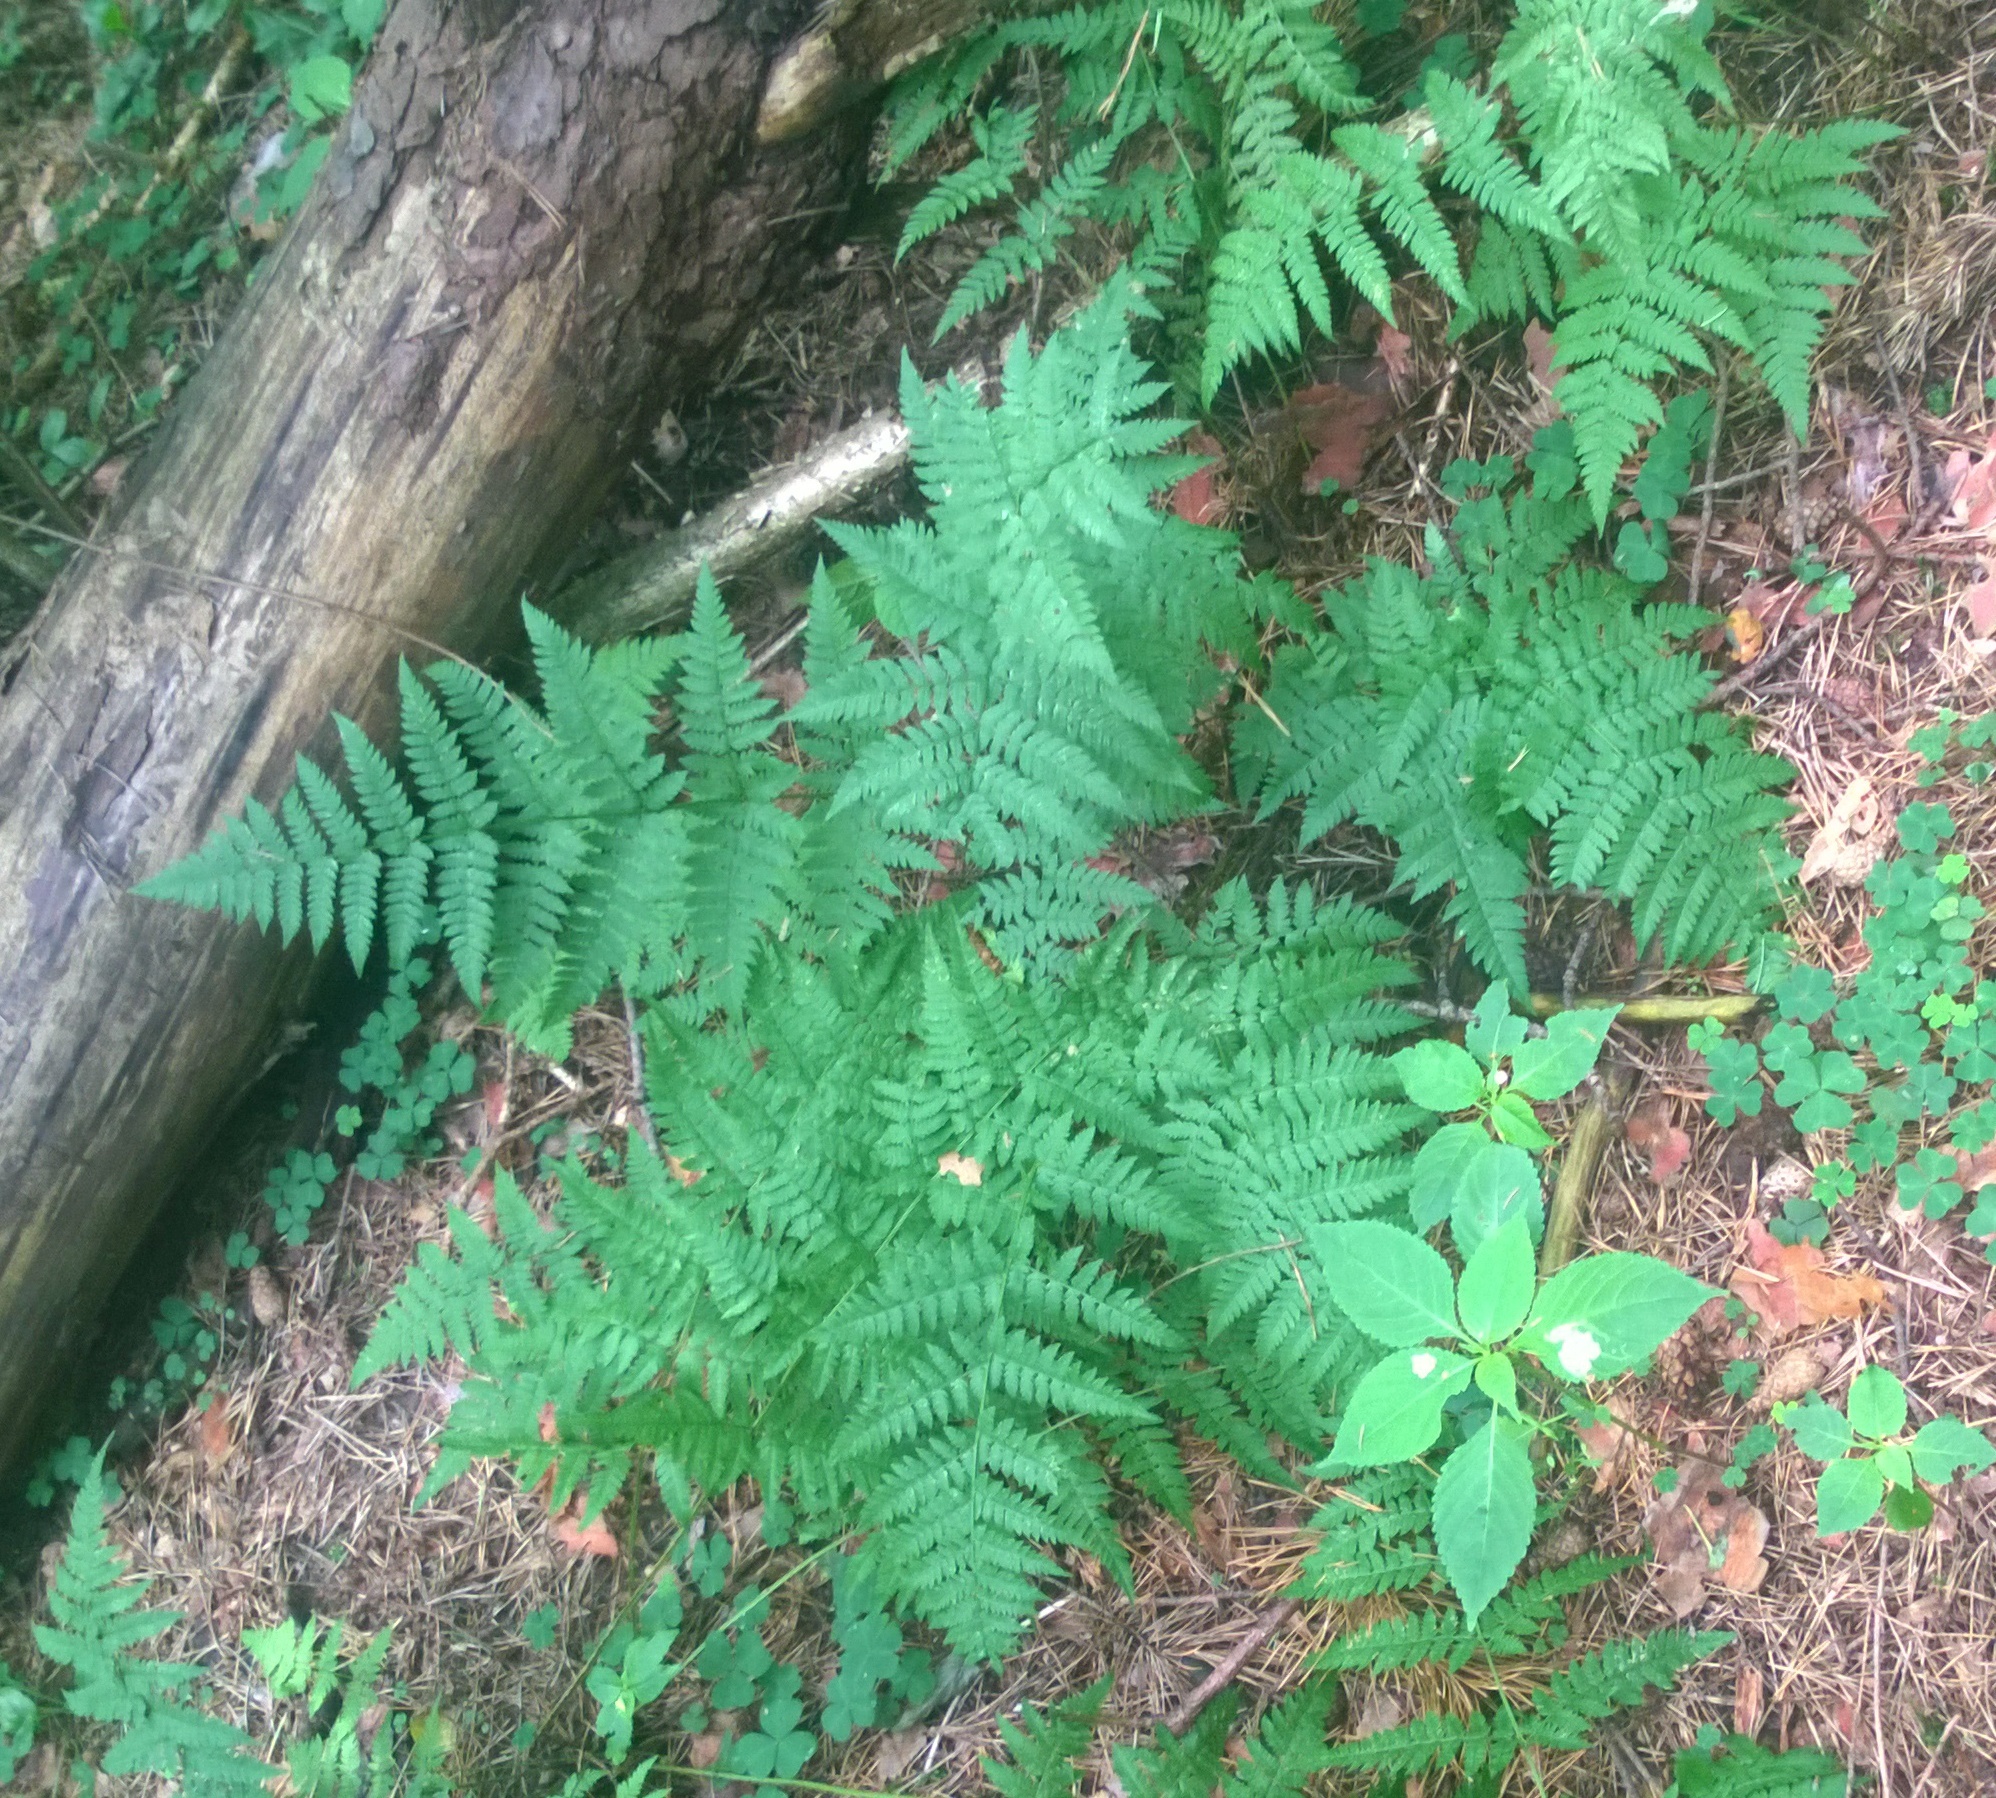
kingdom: Plantae
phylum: Tracheophyta
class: Polypodiopsida
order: Polypodiales
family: Dryopteridaceae
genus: Dryopteris
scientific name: Dryopteris carthusiana
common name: Narrow buckler-fern
